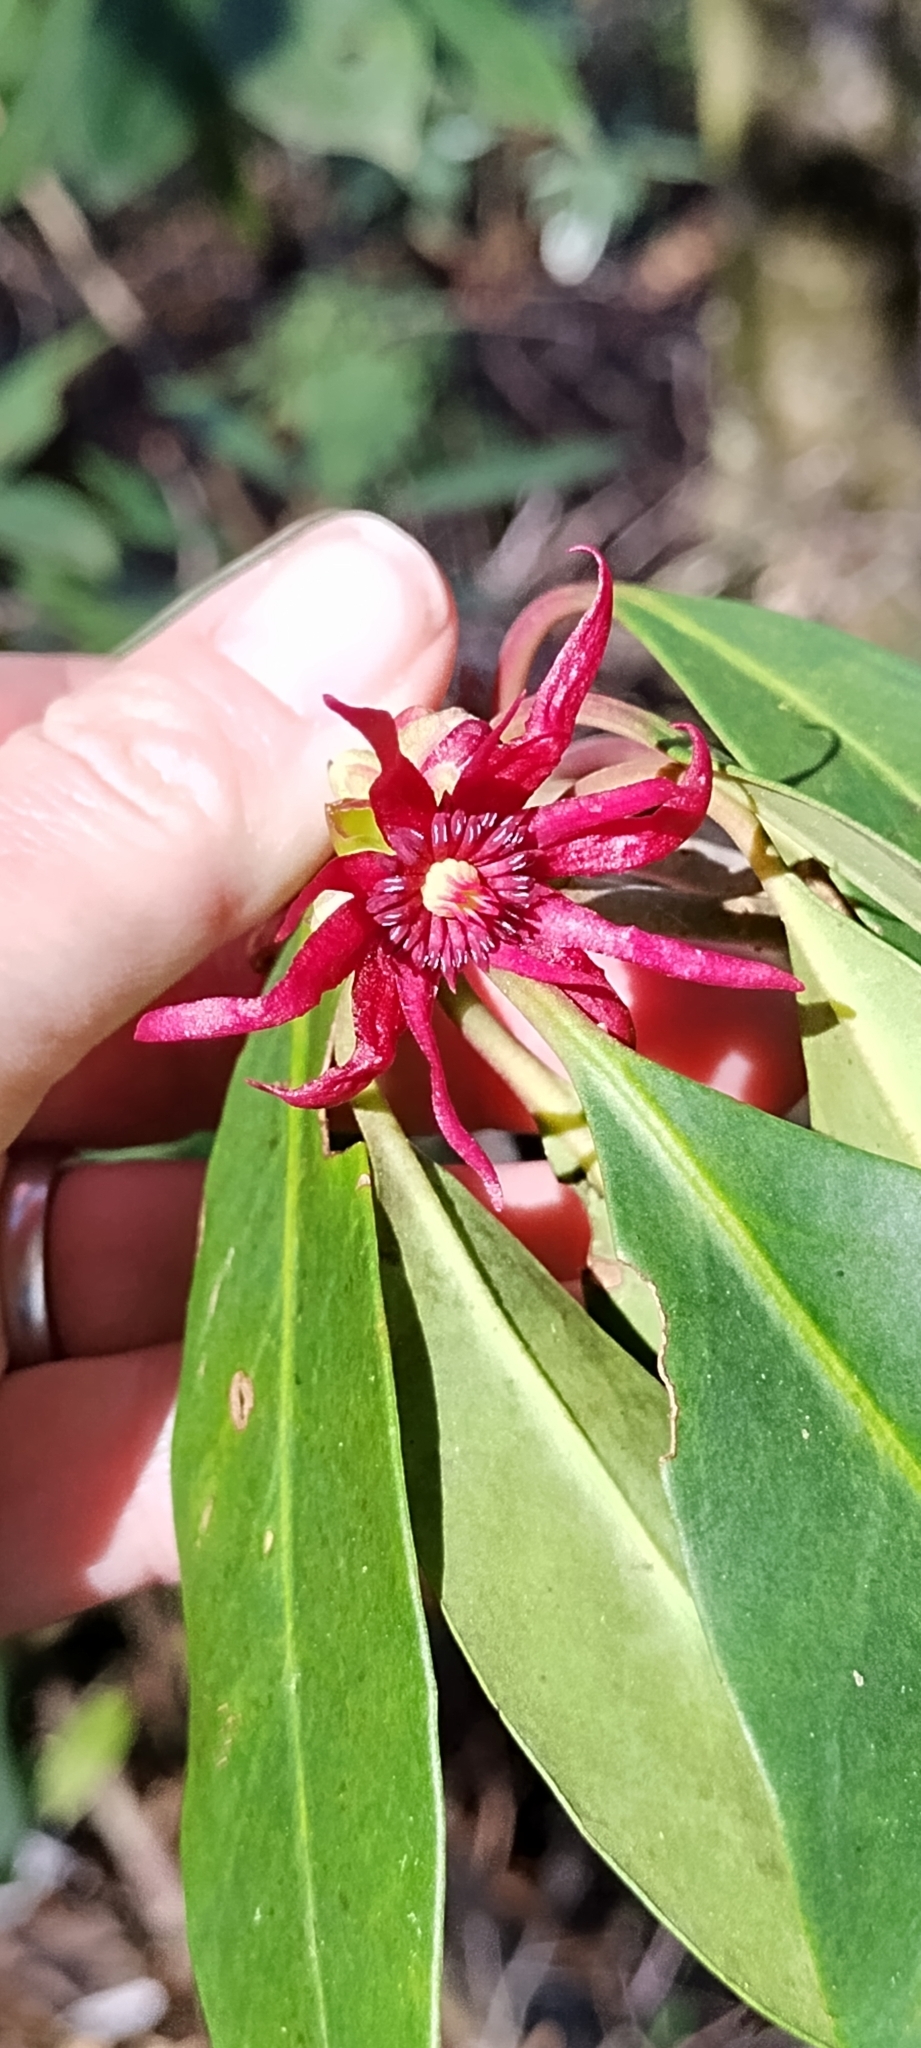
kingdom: Plantae
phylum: Tracheophyta
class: Magnoliopsida
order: Austrobaileyales
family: Schisandraceae
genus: Illicium
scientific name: Illicium floridanum
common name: Florida anisetree
